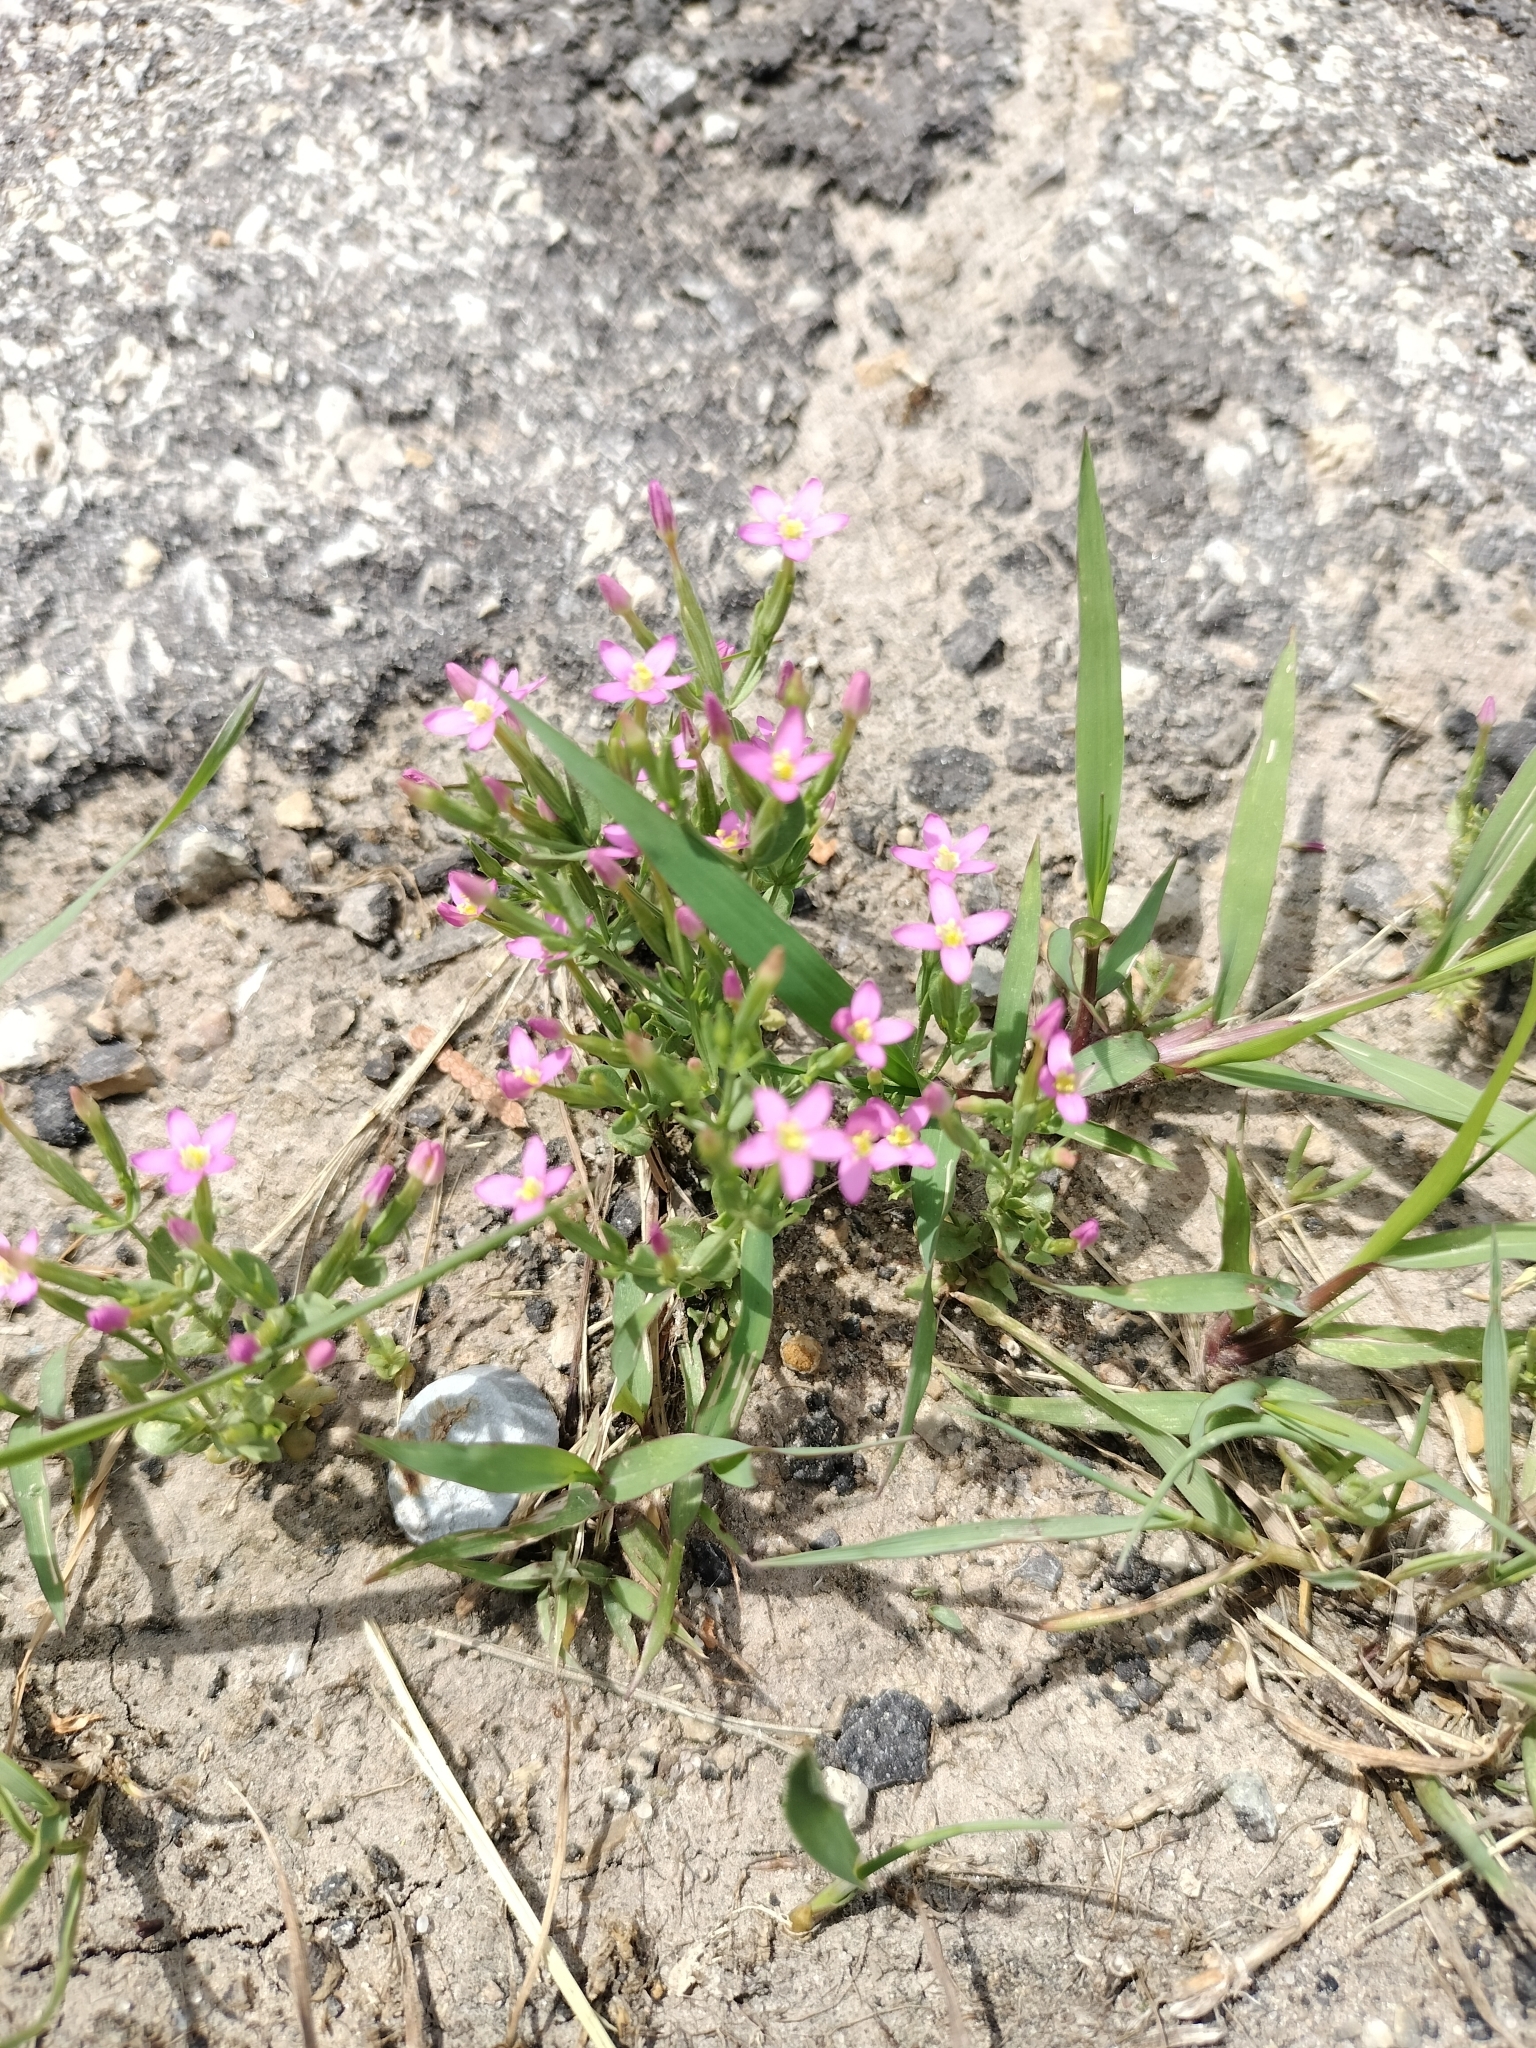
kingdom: Plantae
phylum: Tracheophyta
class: Magnoliopsida
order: Gentianales
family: Gentianaceae
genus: Centaurium
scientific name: Centaurium pulchellum
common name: Lesser centaury
